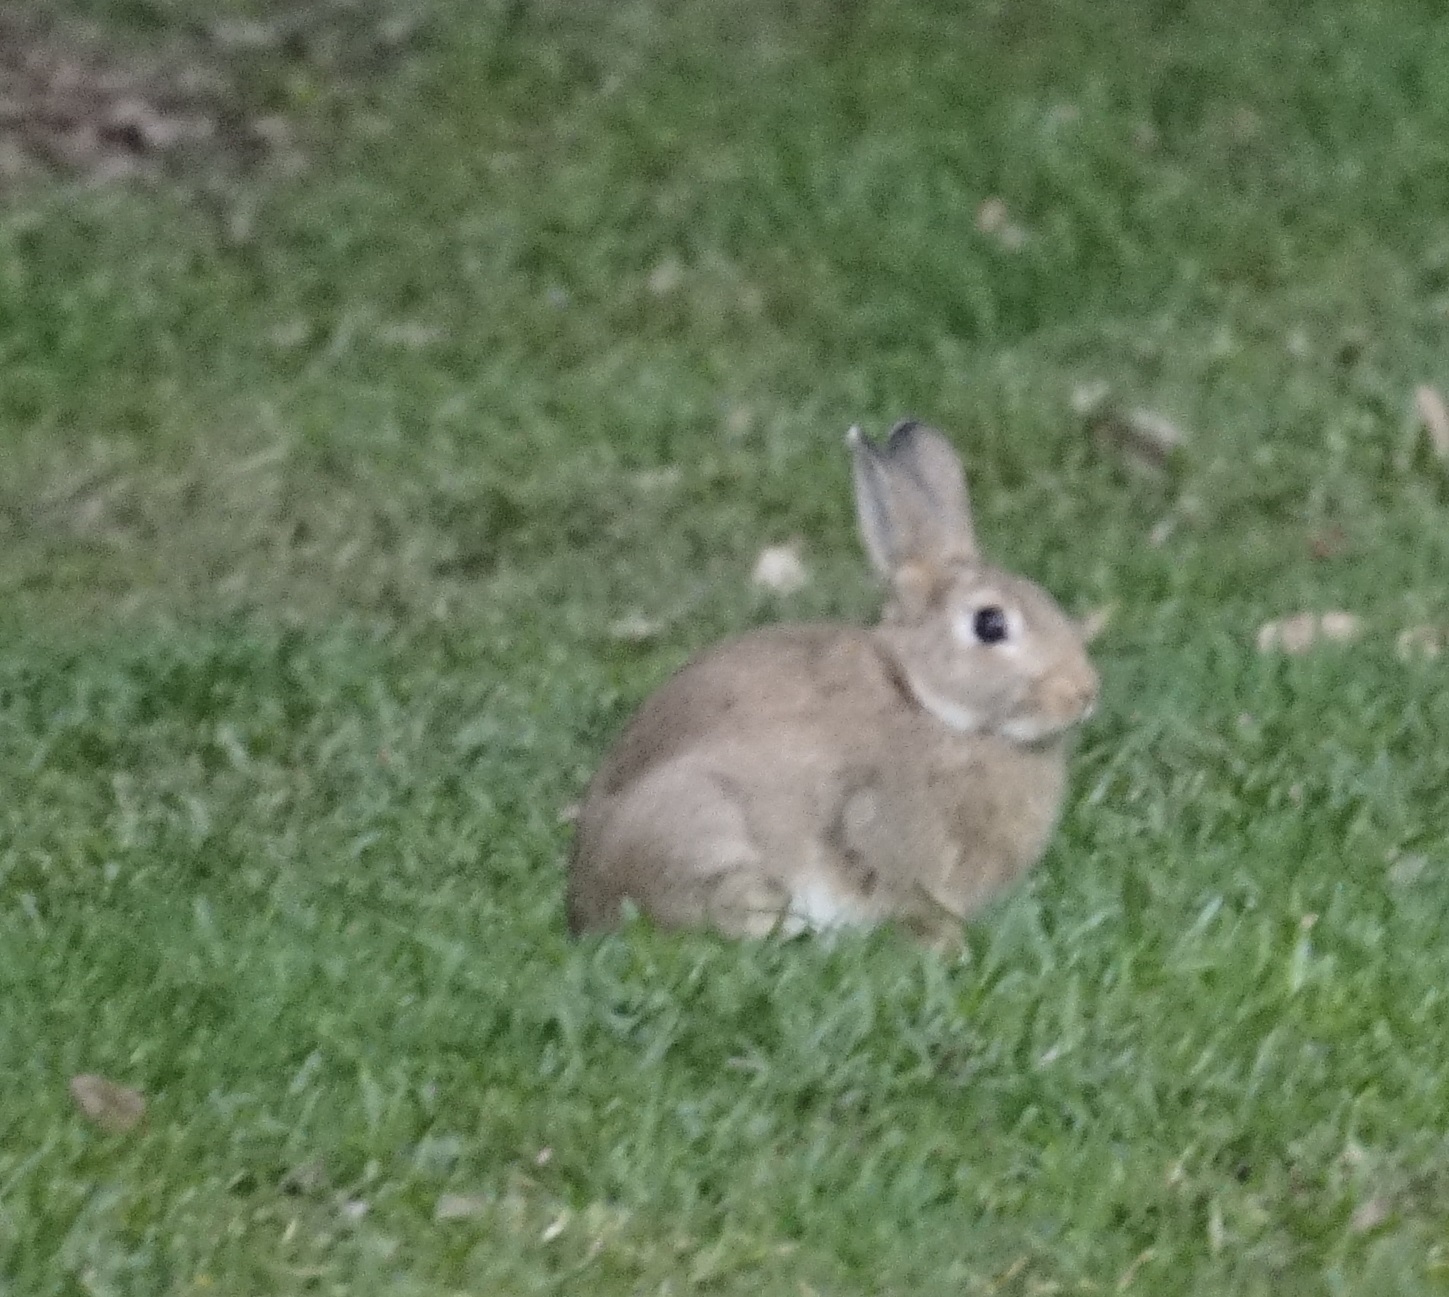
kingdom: Animalia
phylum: Chordata
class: Mammalia
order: Lagomorpha
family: Leporidae
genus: Oryctolagus
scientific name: Oryctolagus cuniculus
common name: European rabbit
